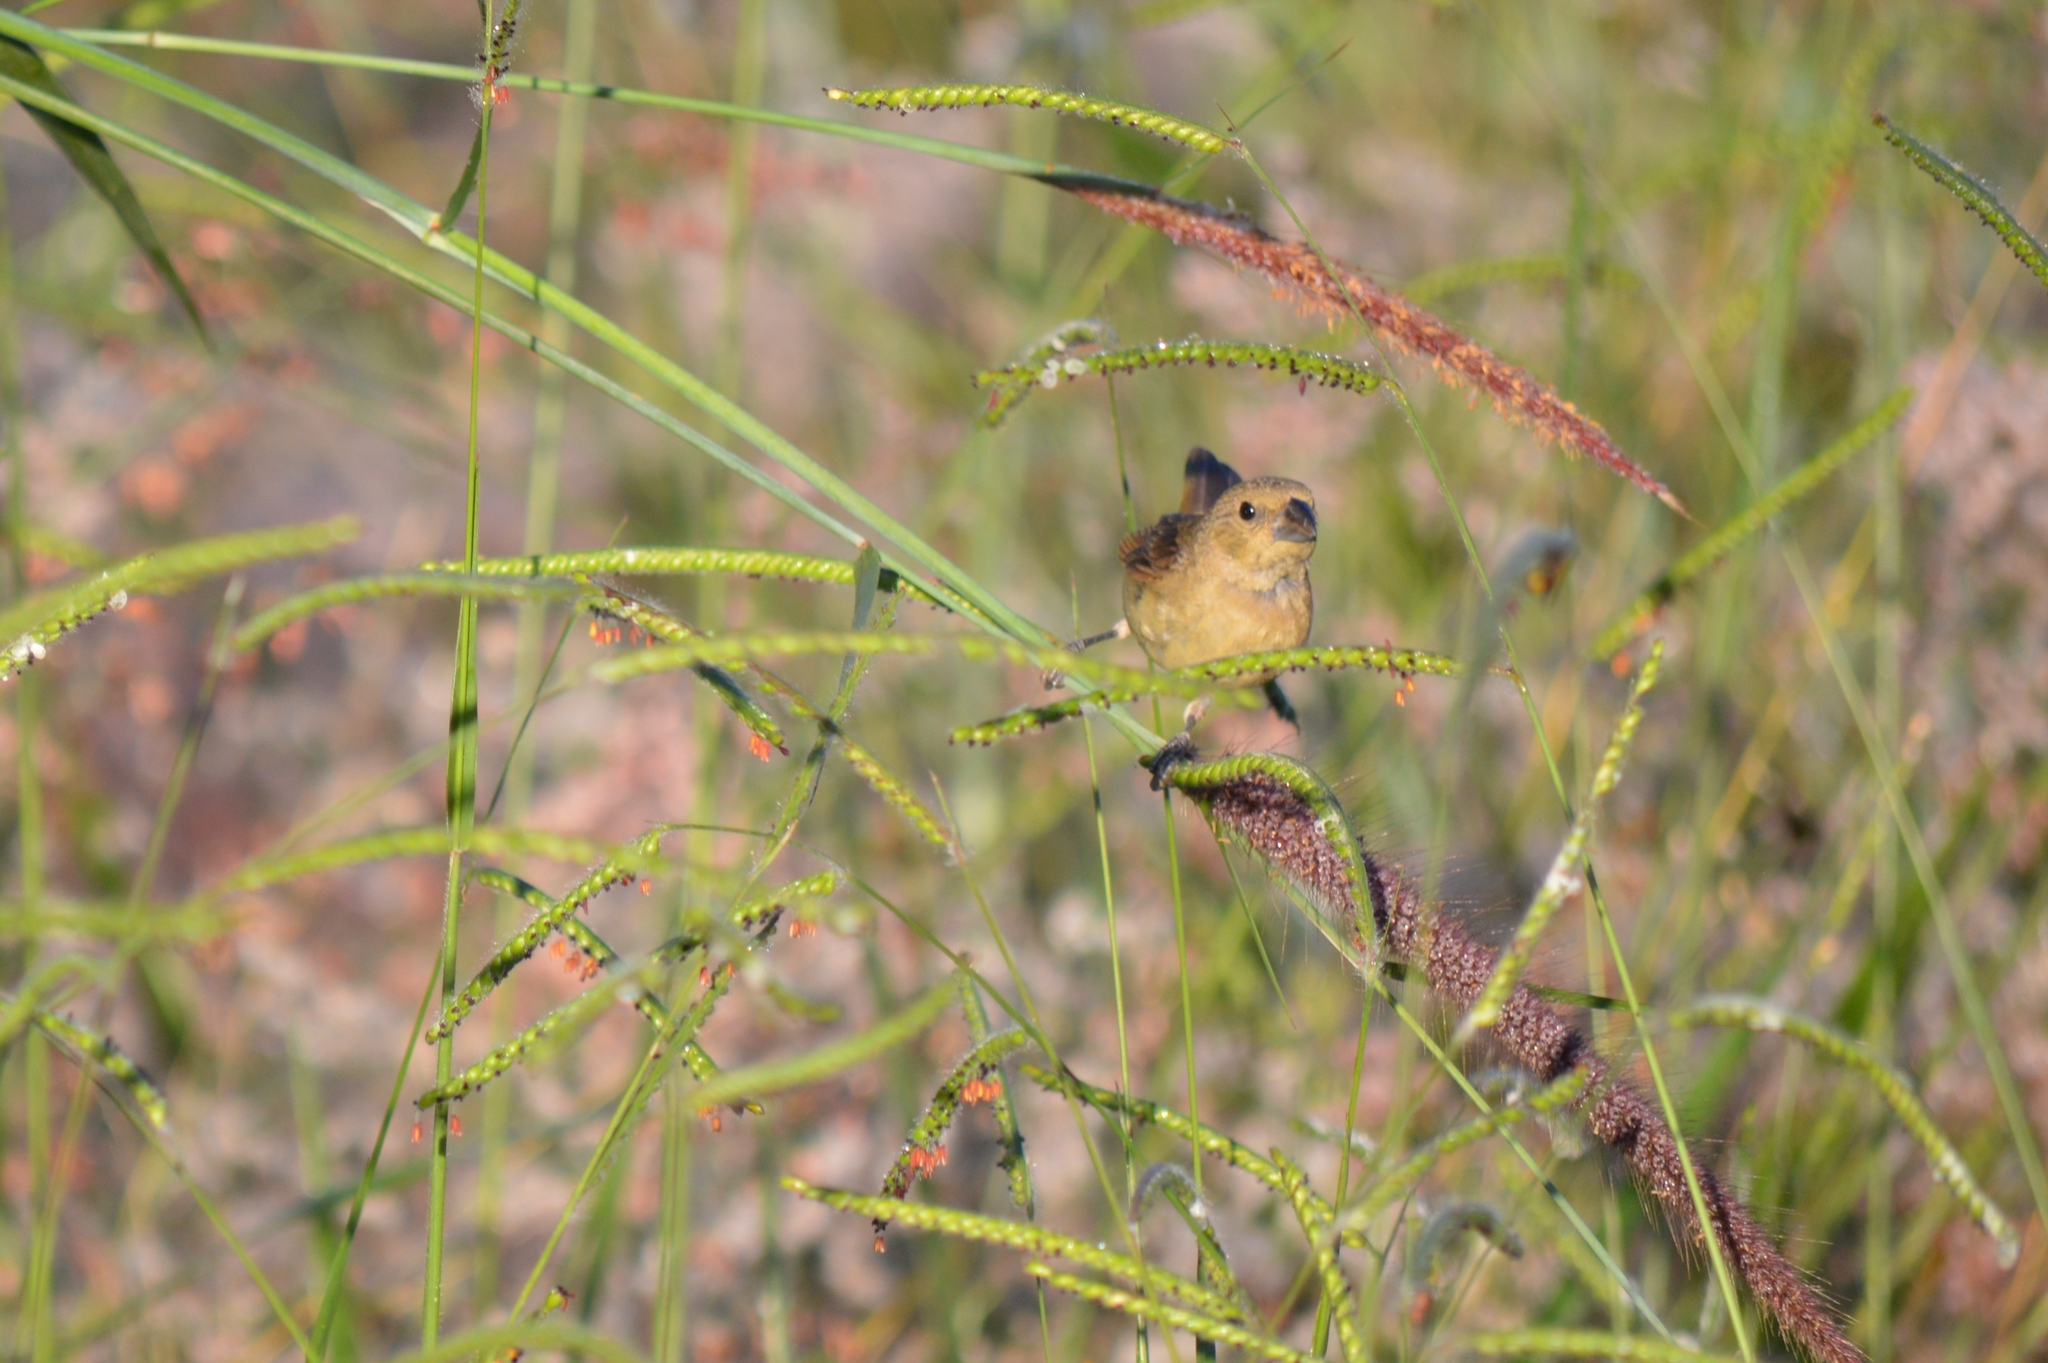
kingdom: Animalia
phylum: Chordata
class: Aves
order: Passeriformes
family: Thraupidae
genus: Sporophila
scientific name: Sporophila nigricollis
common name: Yellow-bellied seedeater
